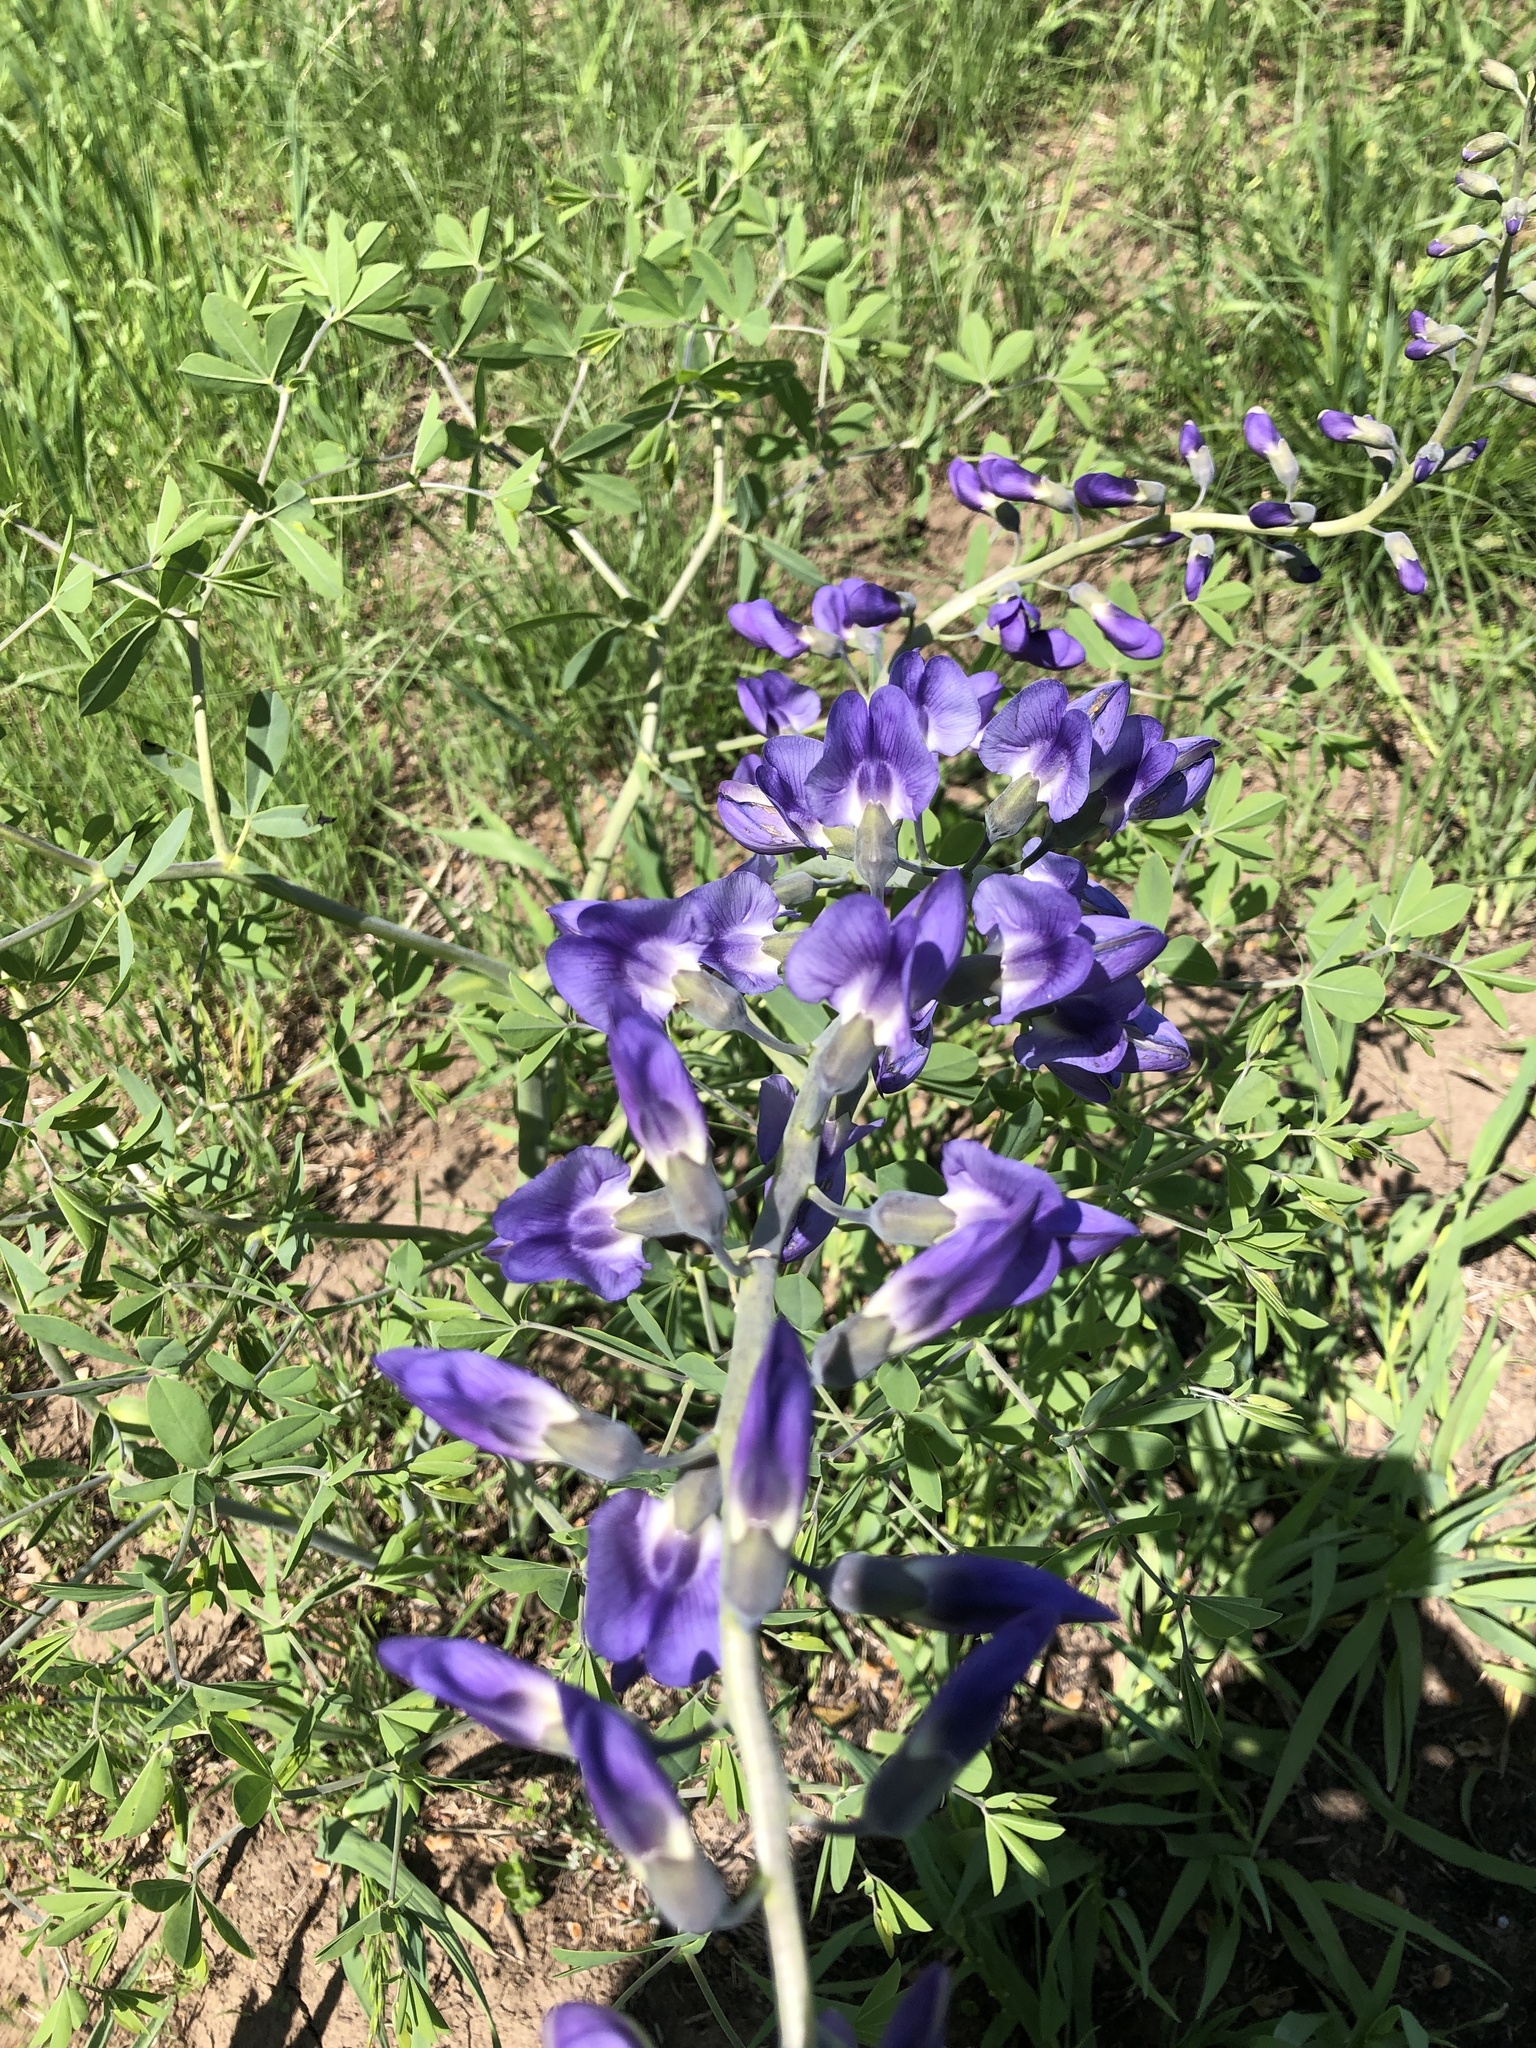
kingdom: Plantae
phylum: Tracheophyta
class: Magnoliopsida
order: Fabales
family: Fabaceae
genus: Baptisia
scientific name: Baptisia australis
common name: Blue false indigo
